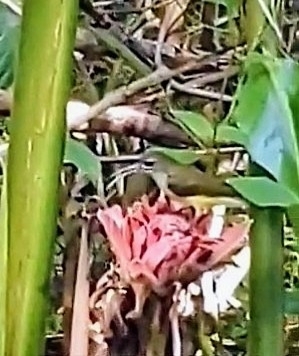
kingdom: Animalia
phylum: Chordata
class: Aves
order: Passeriformes
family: Nectariniidae
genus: Arachnothera
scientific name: Arachnothera longirostra
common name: Little spiderhunter
